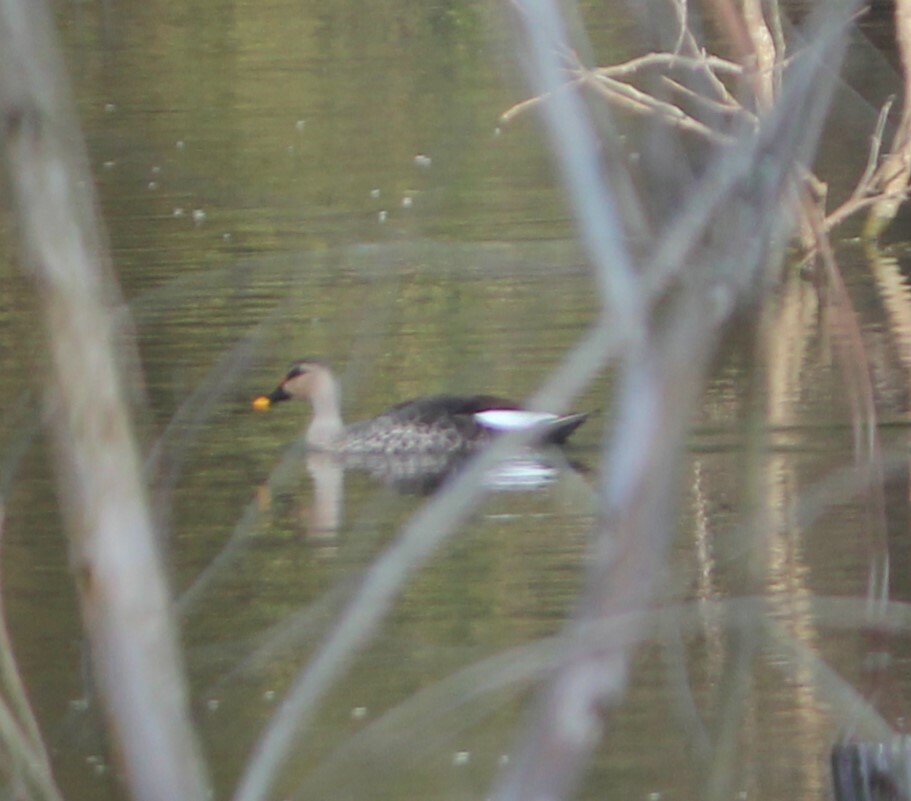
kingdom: Animalia
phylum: Chordata
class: Aves
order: Anseriformes
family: Anatidae
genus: Anas
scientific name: Anas poecilorhyncha
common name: Indian spot-billed duck
